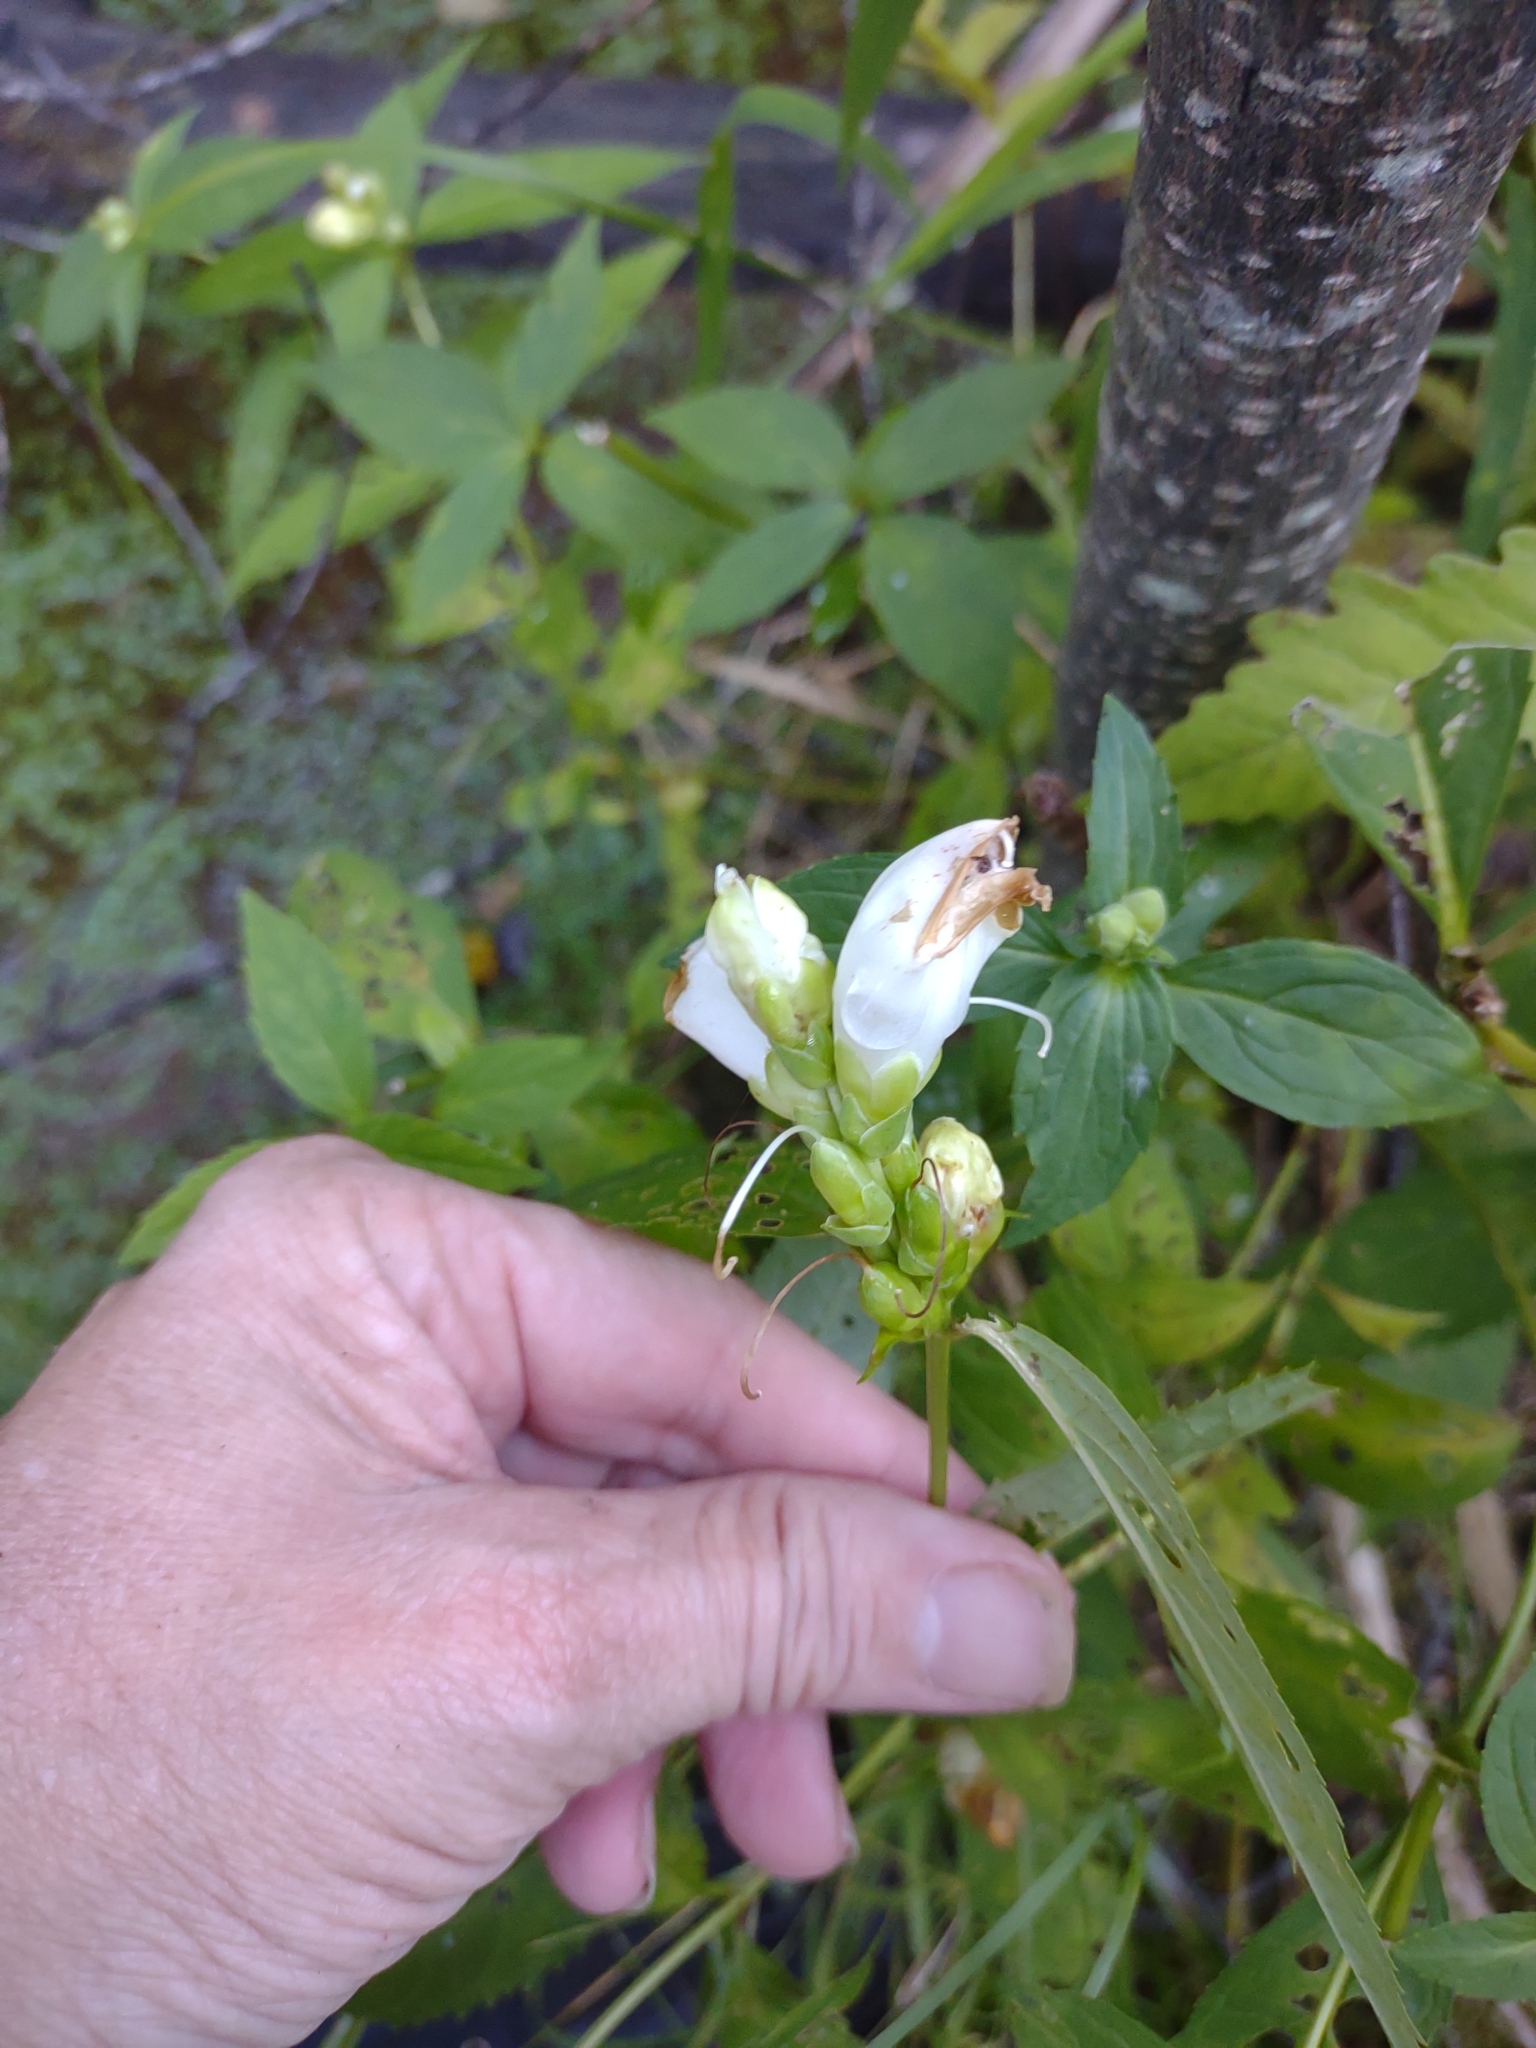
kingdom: Plantae
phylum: Tracheophyta
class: Magnoliopsida
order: Lamiales
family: Plantaginaceae
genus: Chelone
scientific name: Chelone glabra
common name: Snakehead
